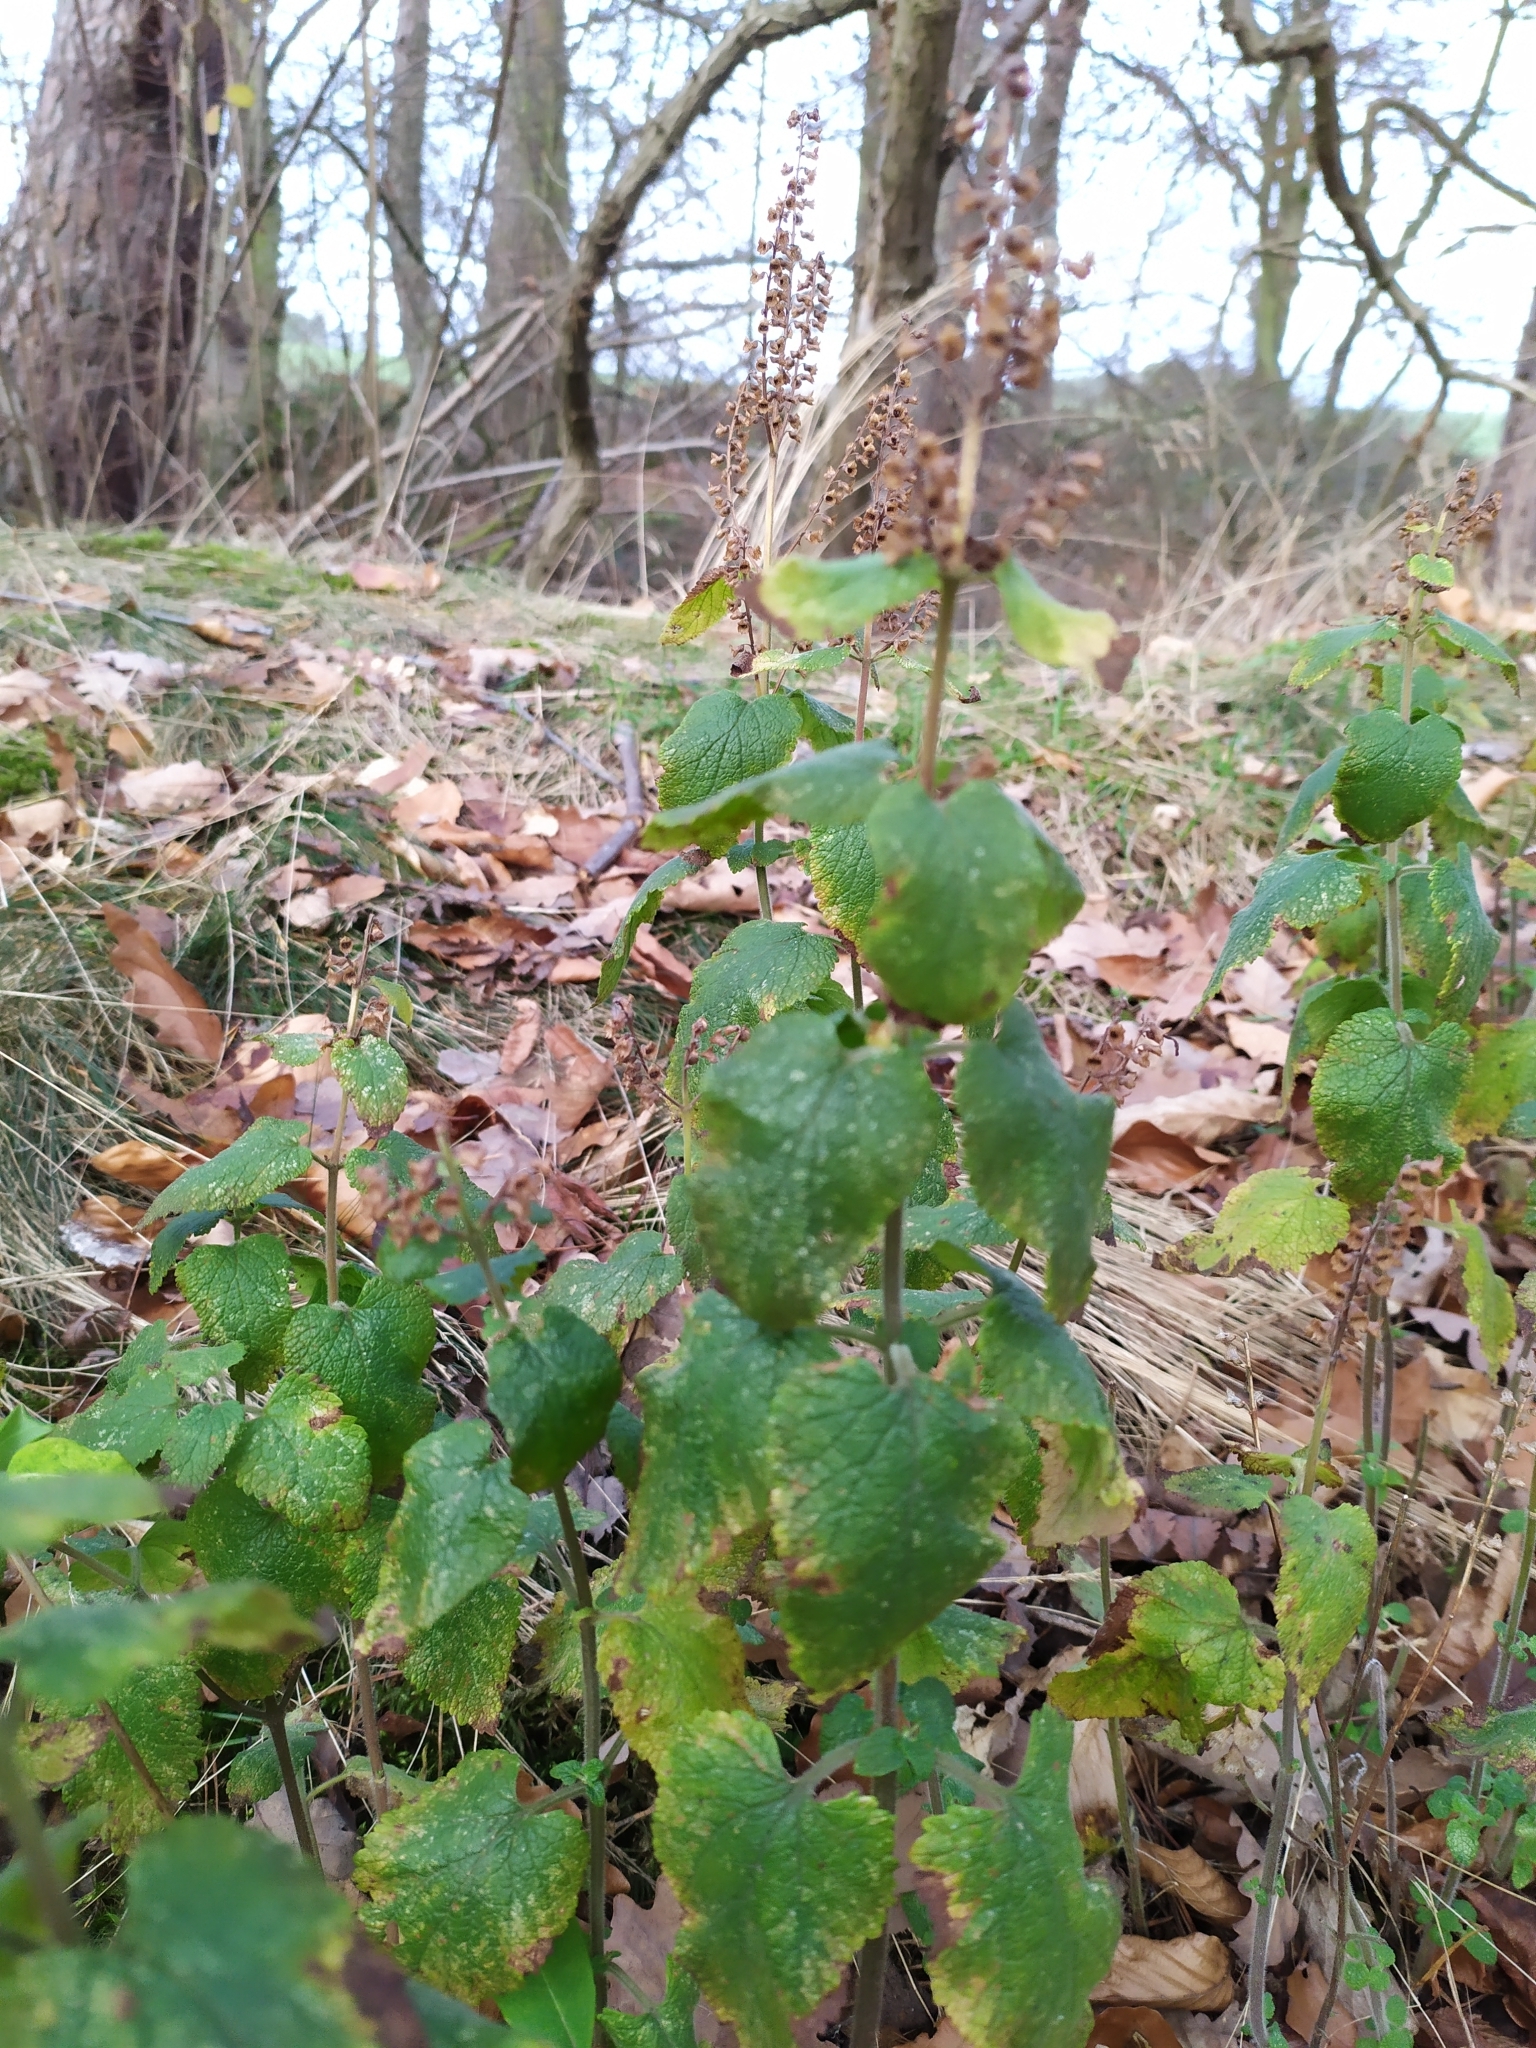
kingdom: Plantae
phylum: Tracheophyta
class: Magnoliopsida
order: Lamiales
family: Lamiaceae
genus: Teucrium
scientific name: Teucrium scorodonia
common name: Woodland germander
